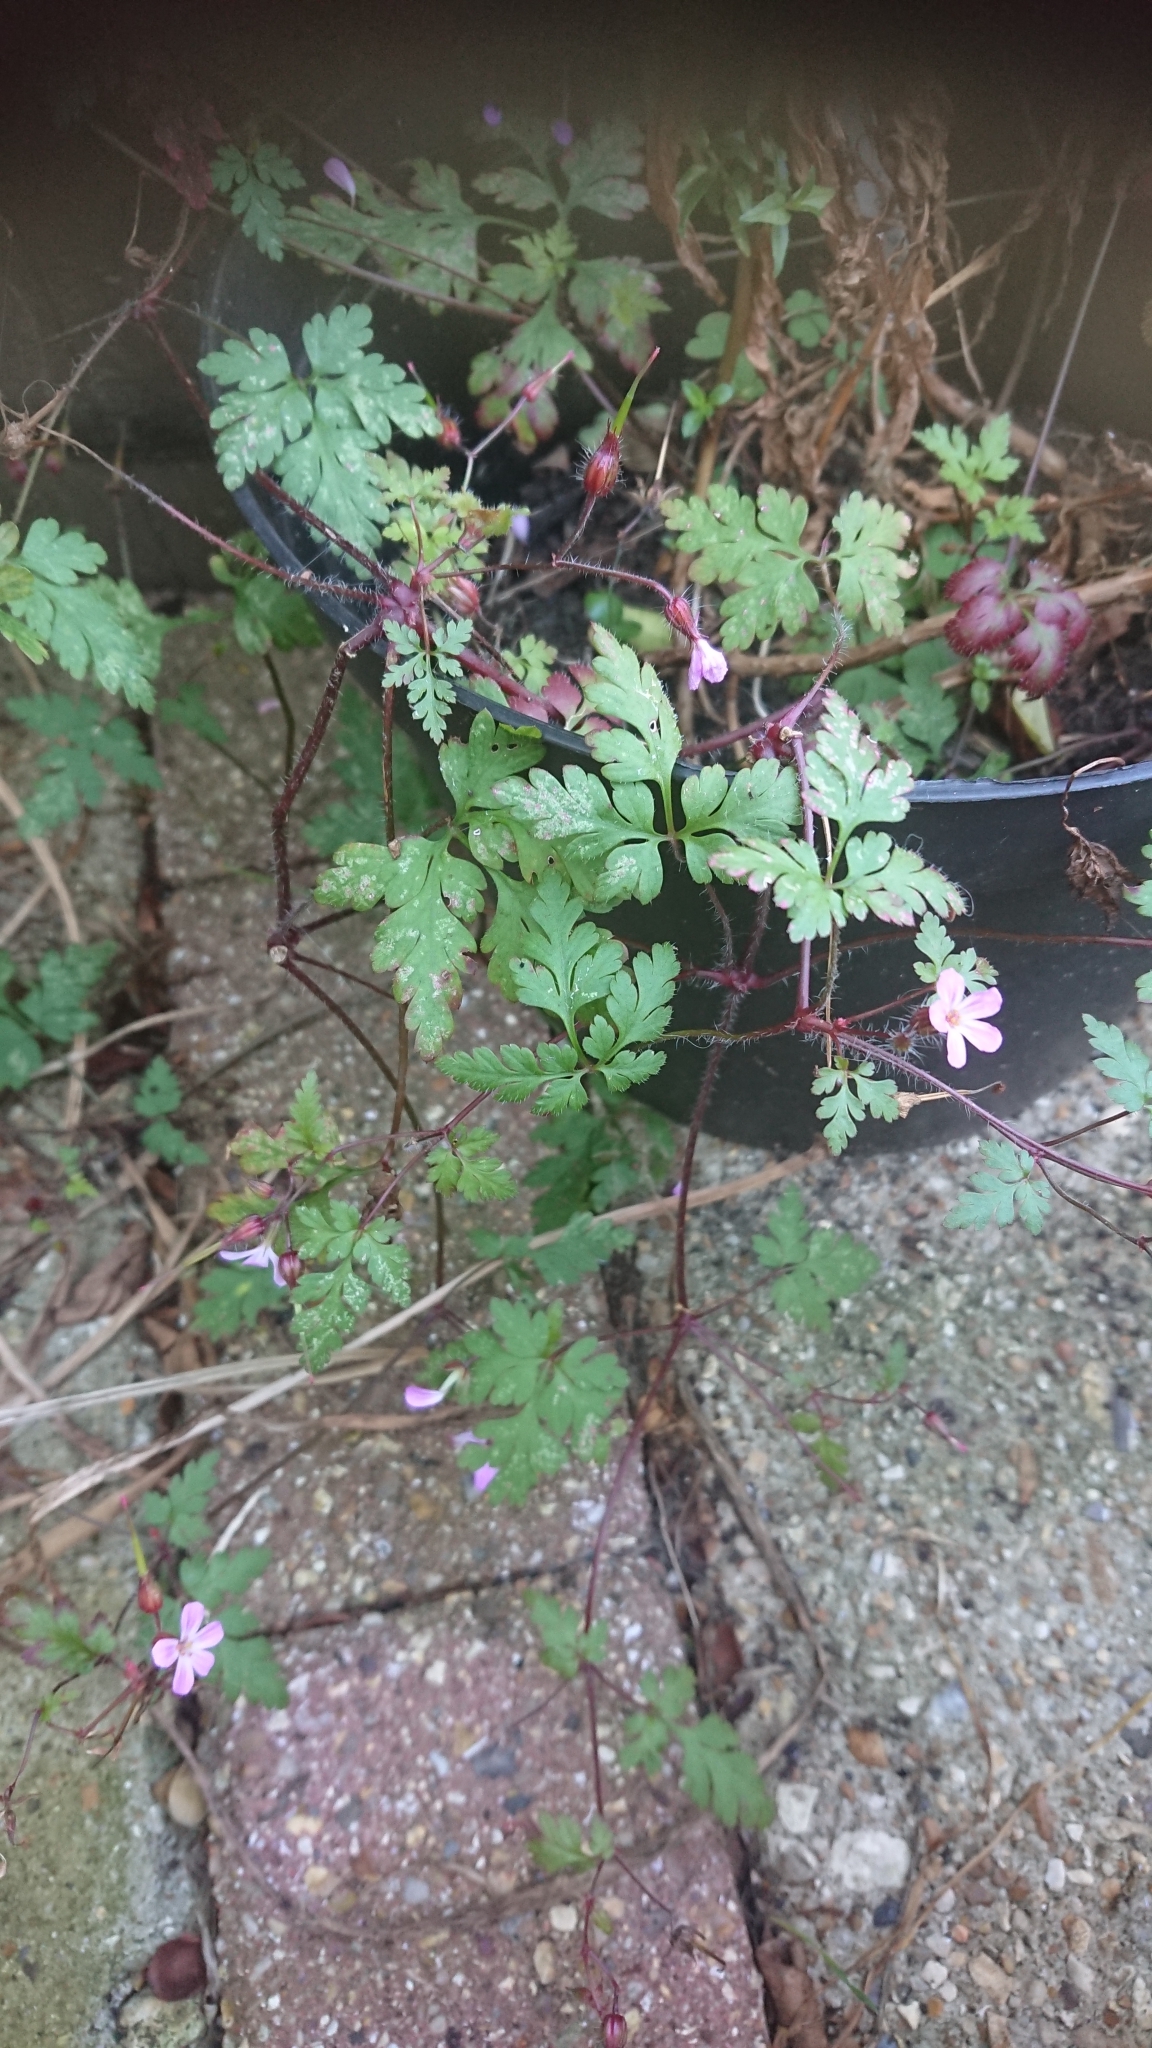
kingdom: Plantae
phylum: Tracheophyta
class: Magnoliopsida
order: Geraniales
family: Geraniaceae
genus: Geranium
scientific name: Geranium robertianum
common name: Herb-robert
